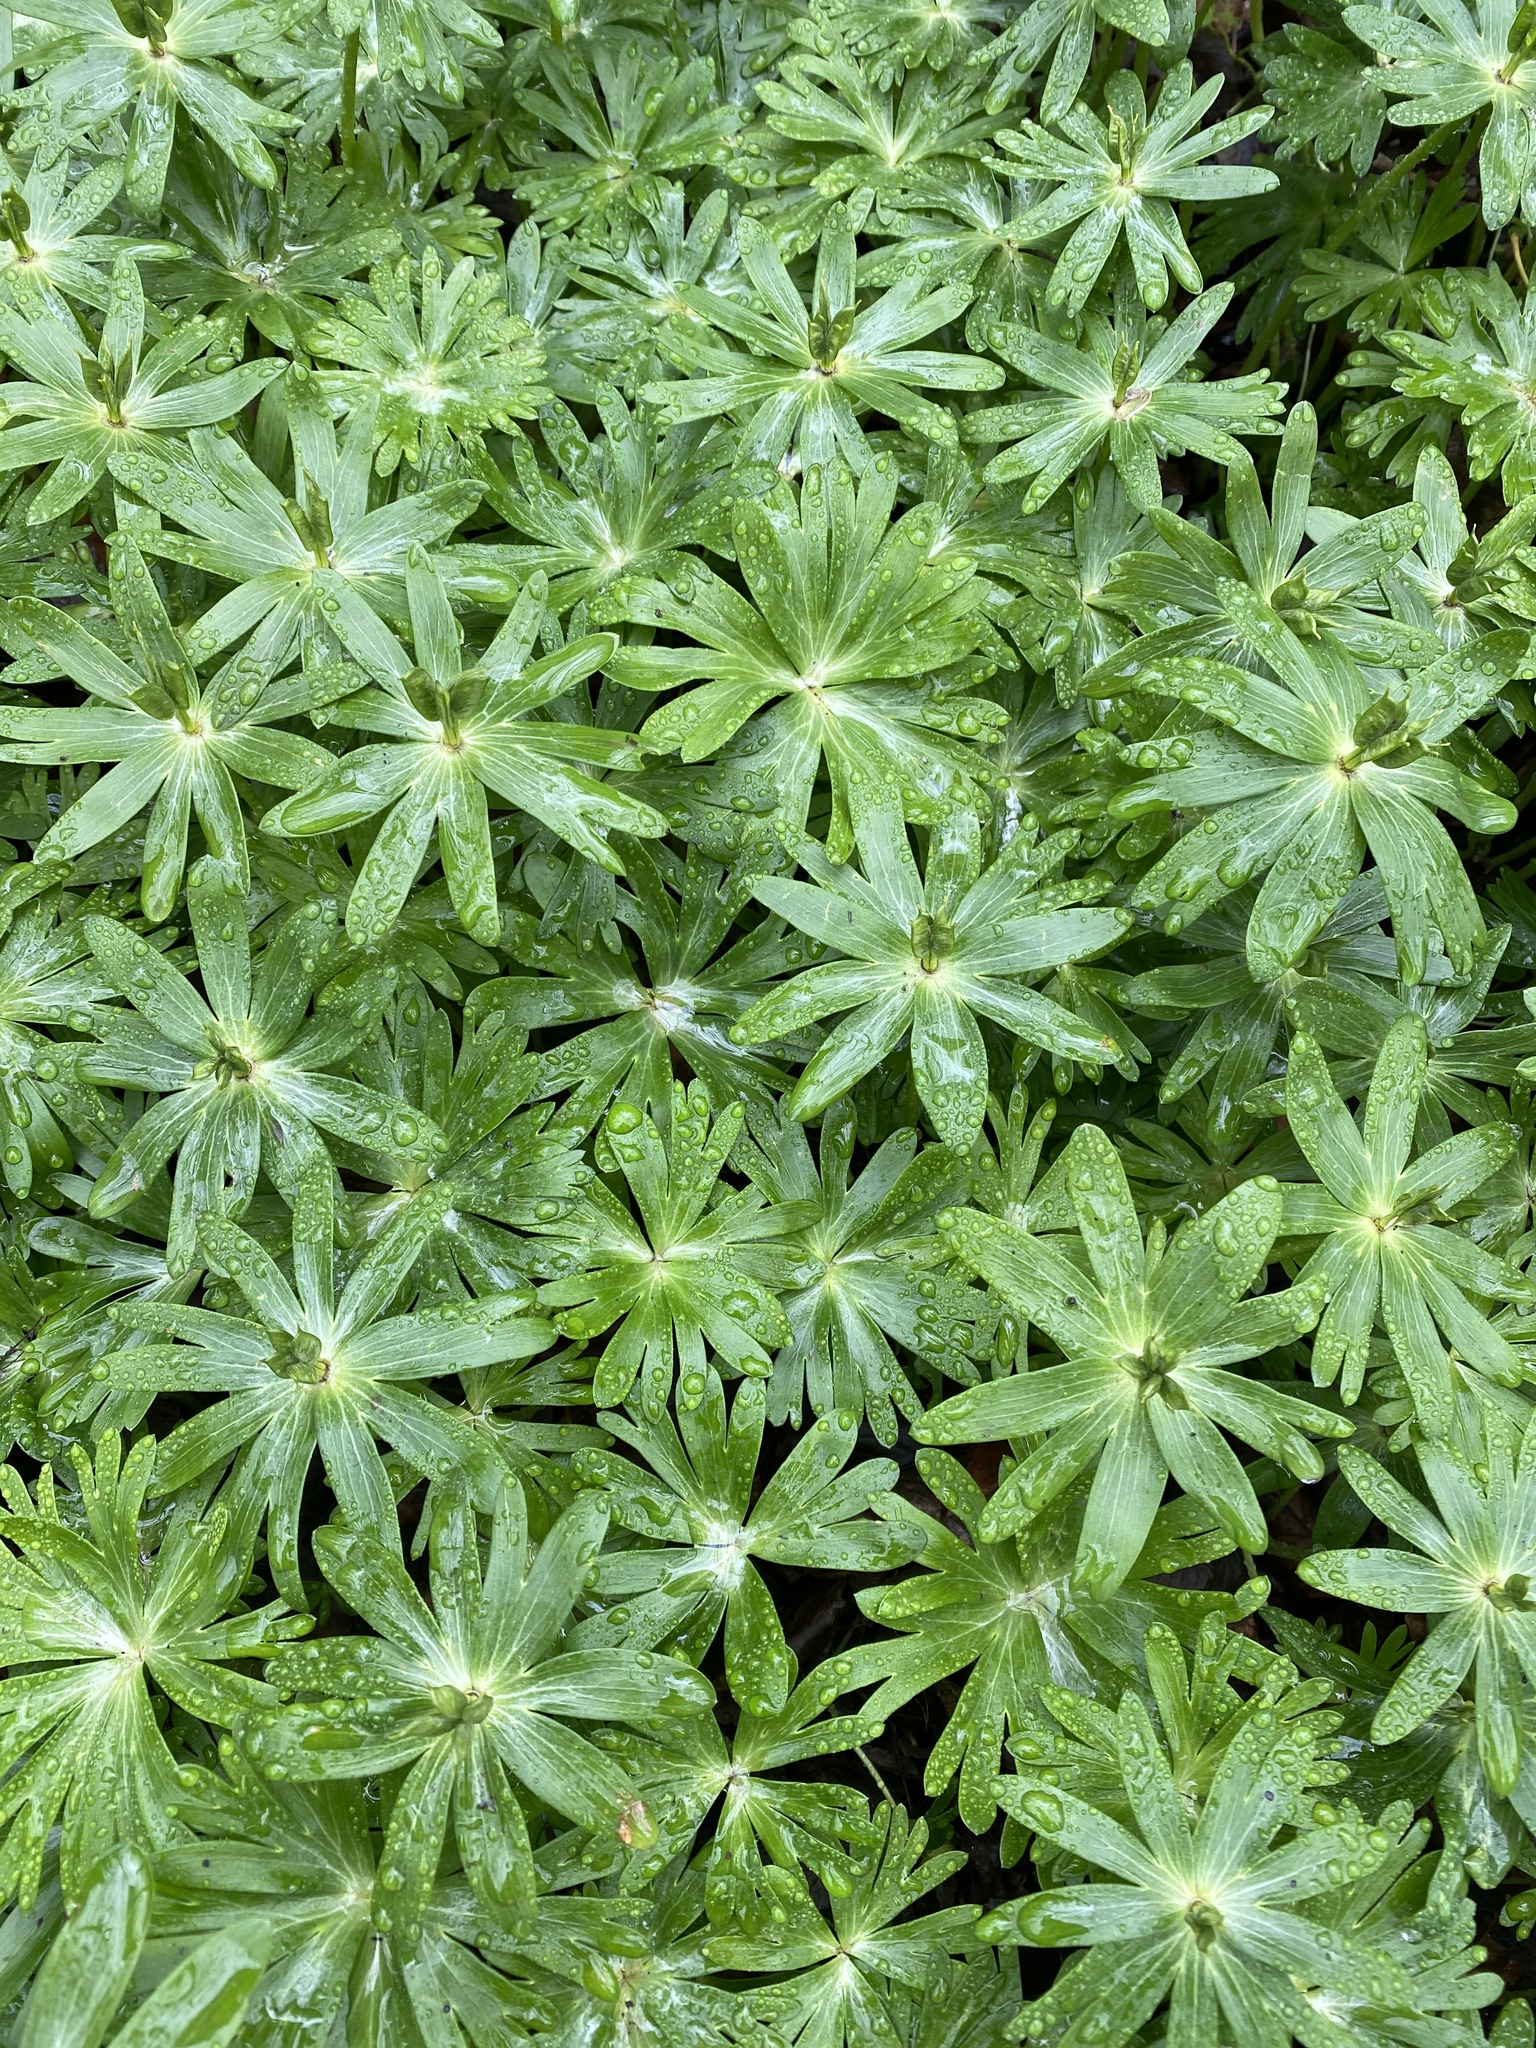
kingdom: Plantae
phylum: Tracheophyta
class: Magnoliopsida
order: Ranunculales
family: Ranunculaceae
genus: Eranthis
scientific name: Eranthis hyemalis
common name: Winter aconite
